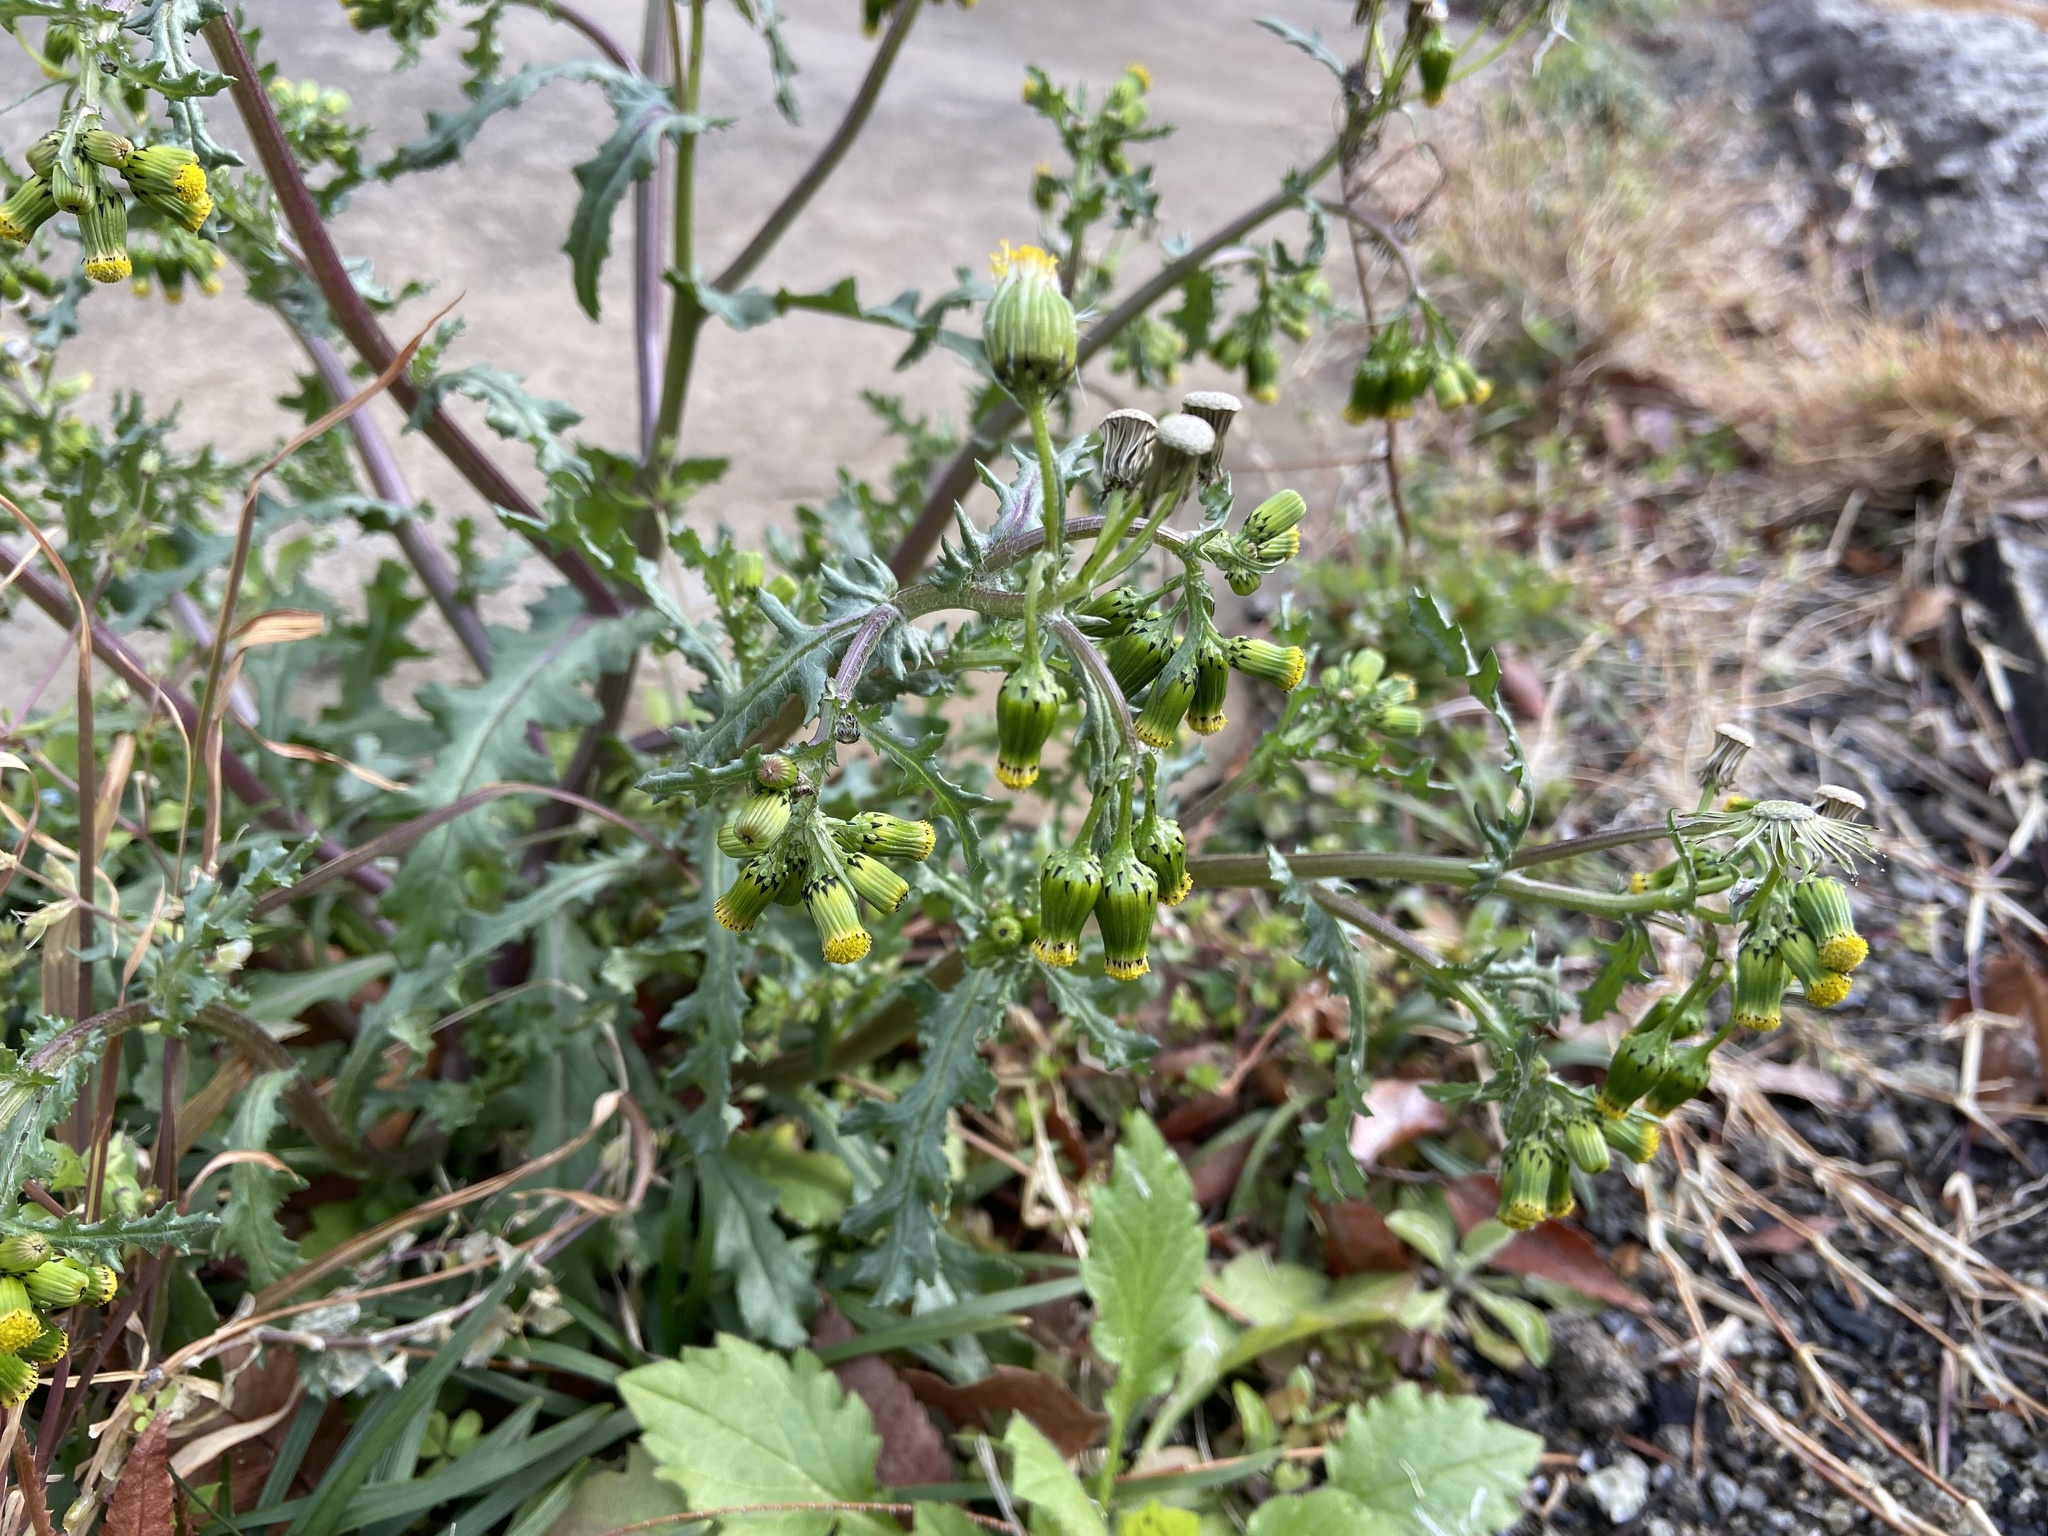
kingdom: Plantae
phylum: Tracheophyta
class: Magnoliopsida
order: Asterales
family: Asteraceae
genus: Senecio
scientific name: Senecio vulgaris
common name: Old-man-in-the-spring
